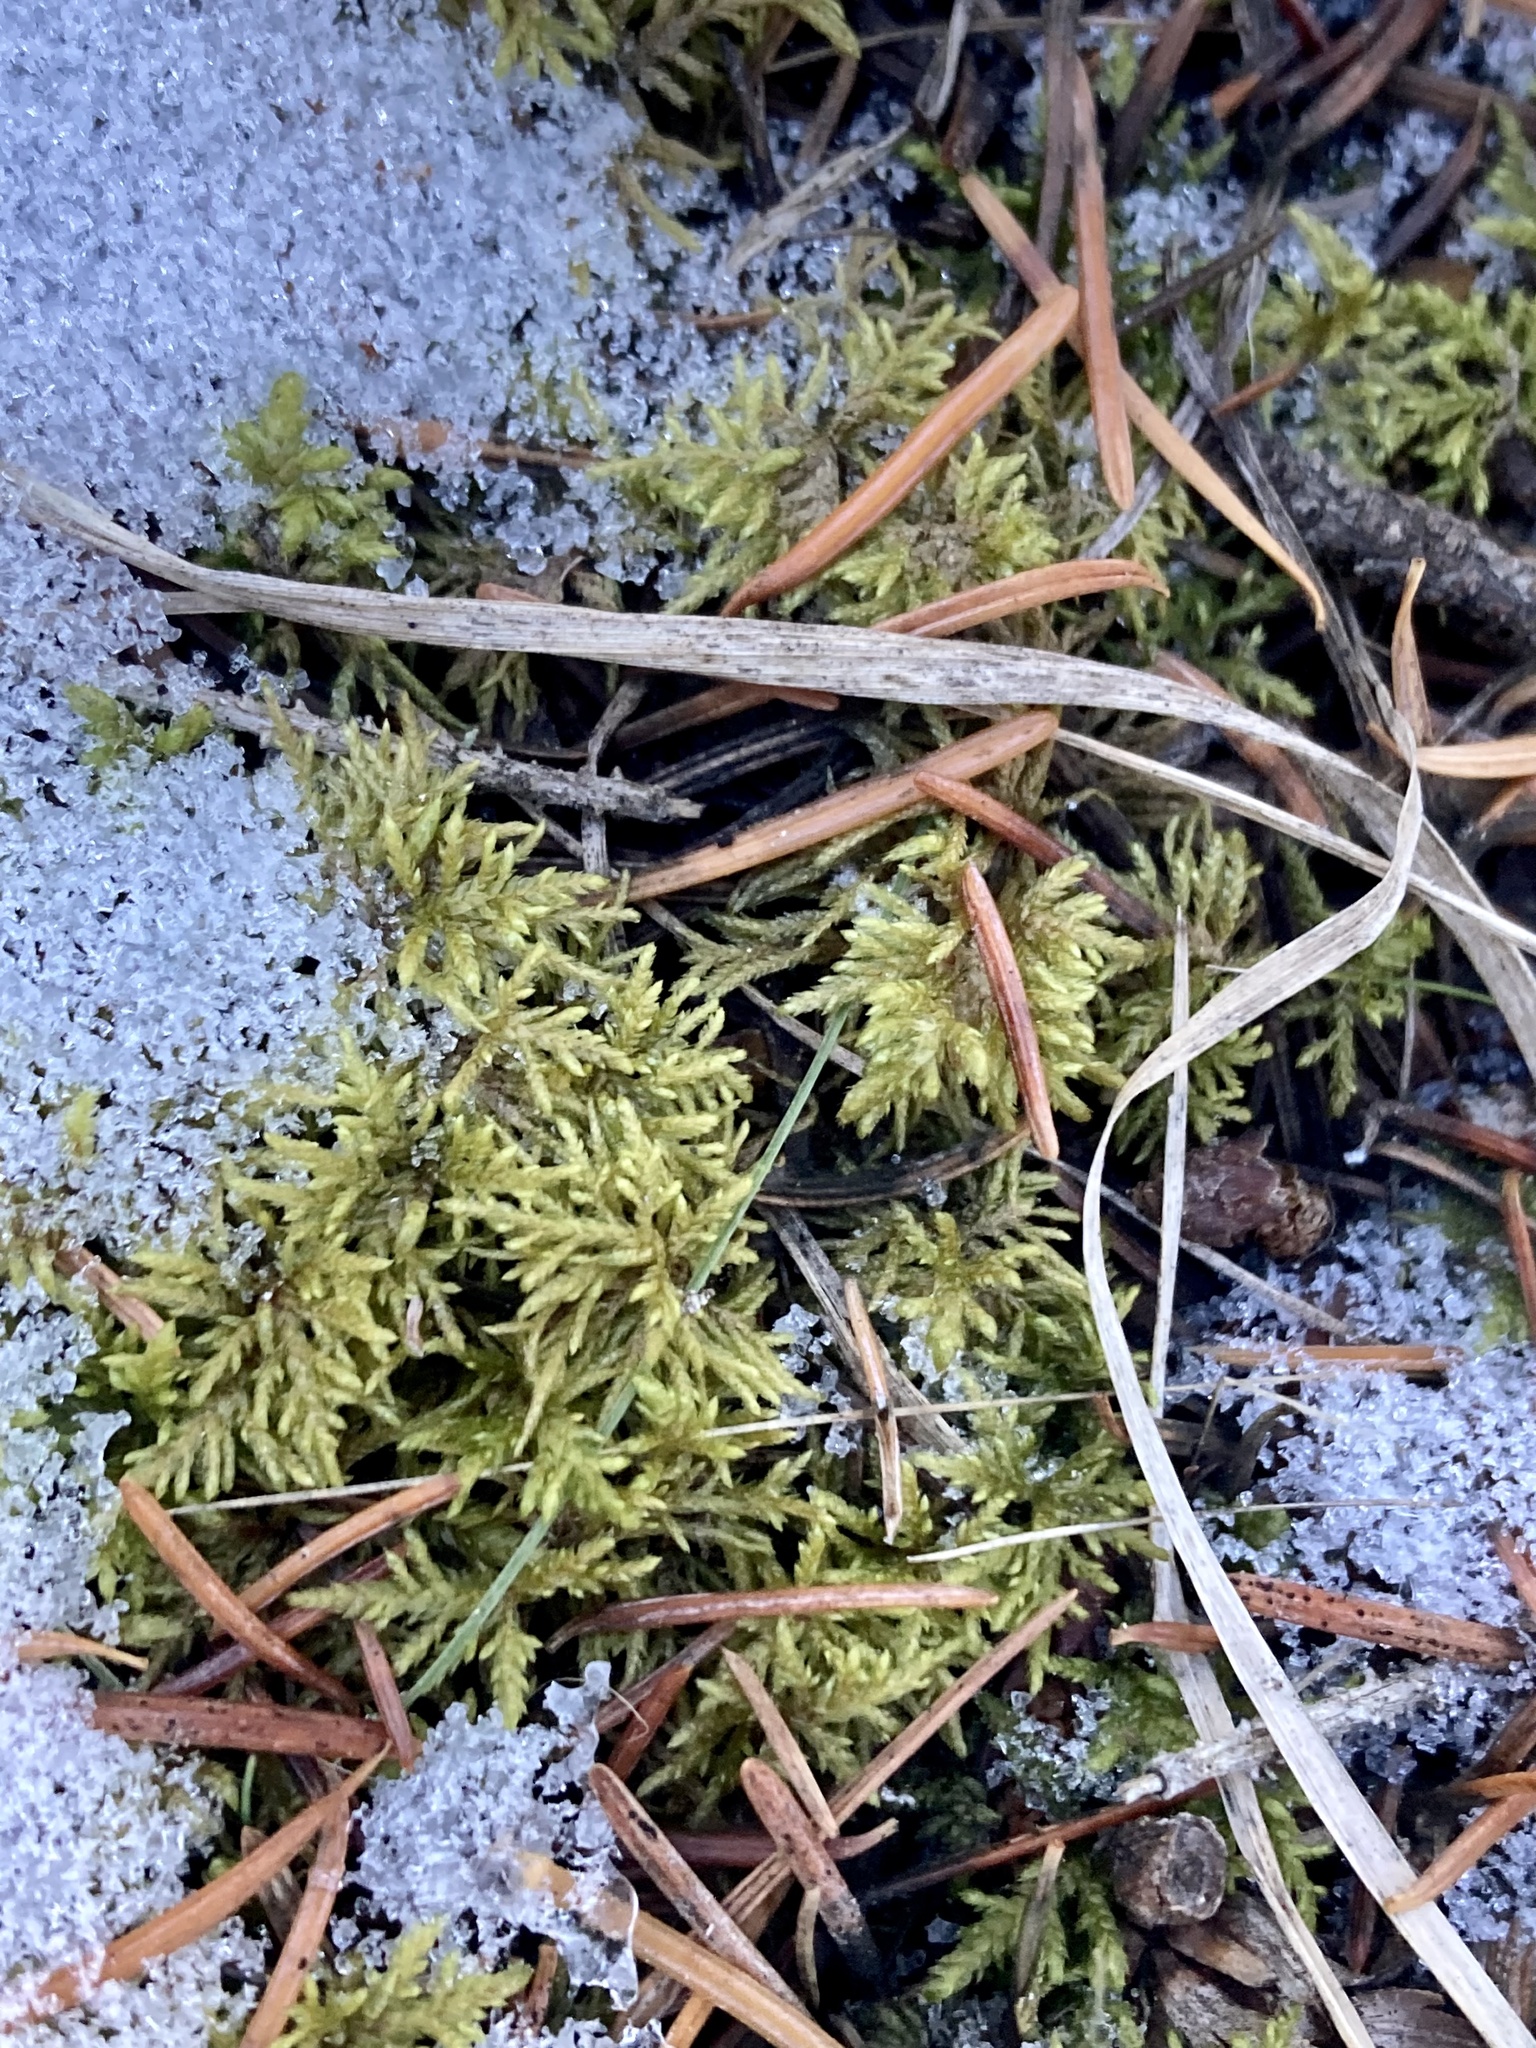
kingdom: Plantae
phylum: Bryophyta
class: Bryopsida
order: Hypnales
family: Hylocomiaceae
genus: Hylocomium
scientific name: Hylocomium splendens
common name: Stairstep moss
